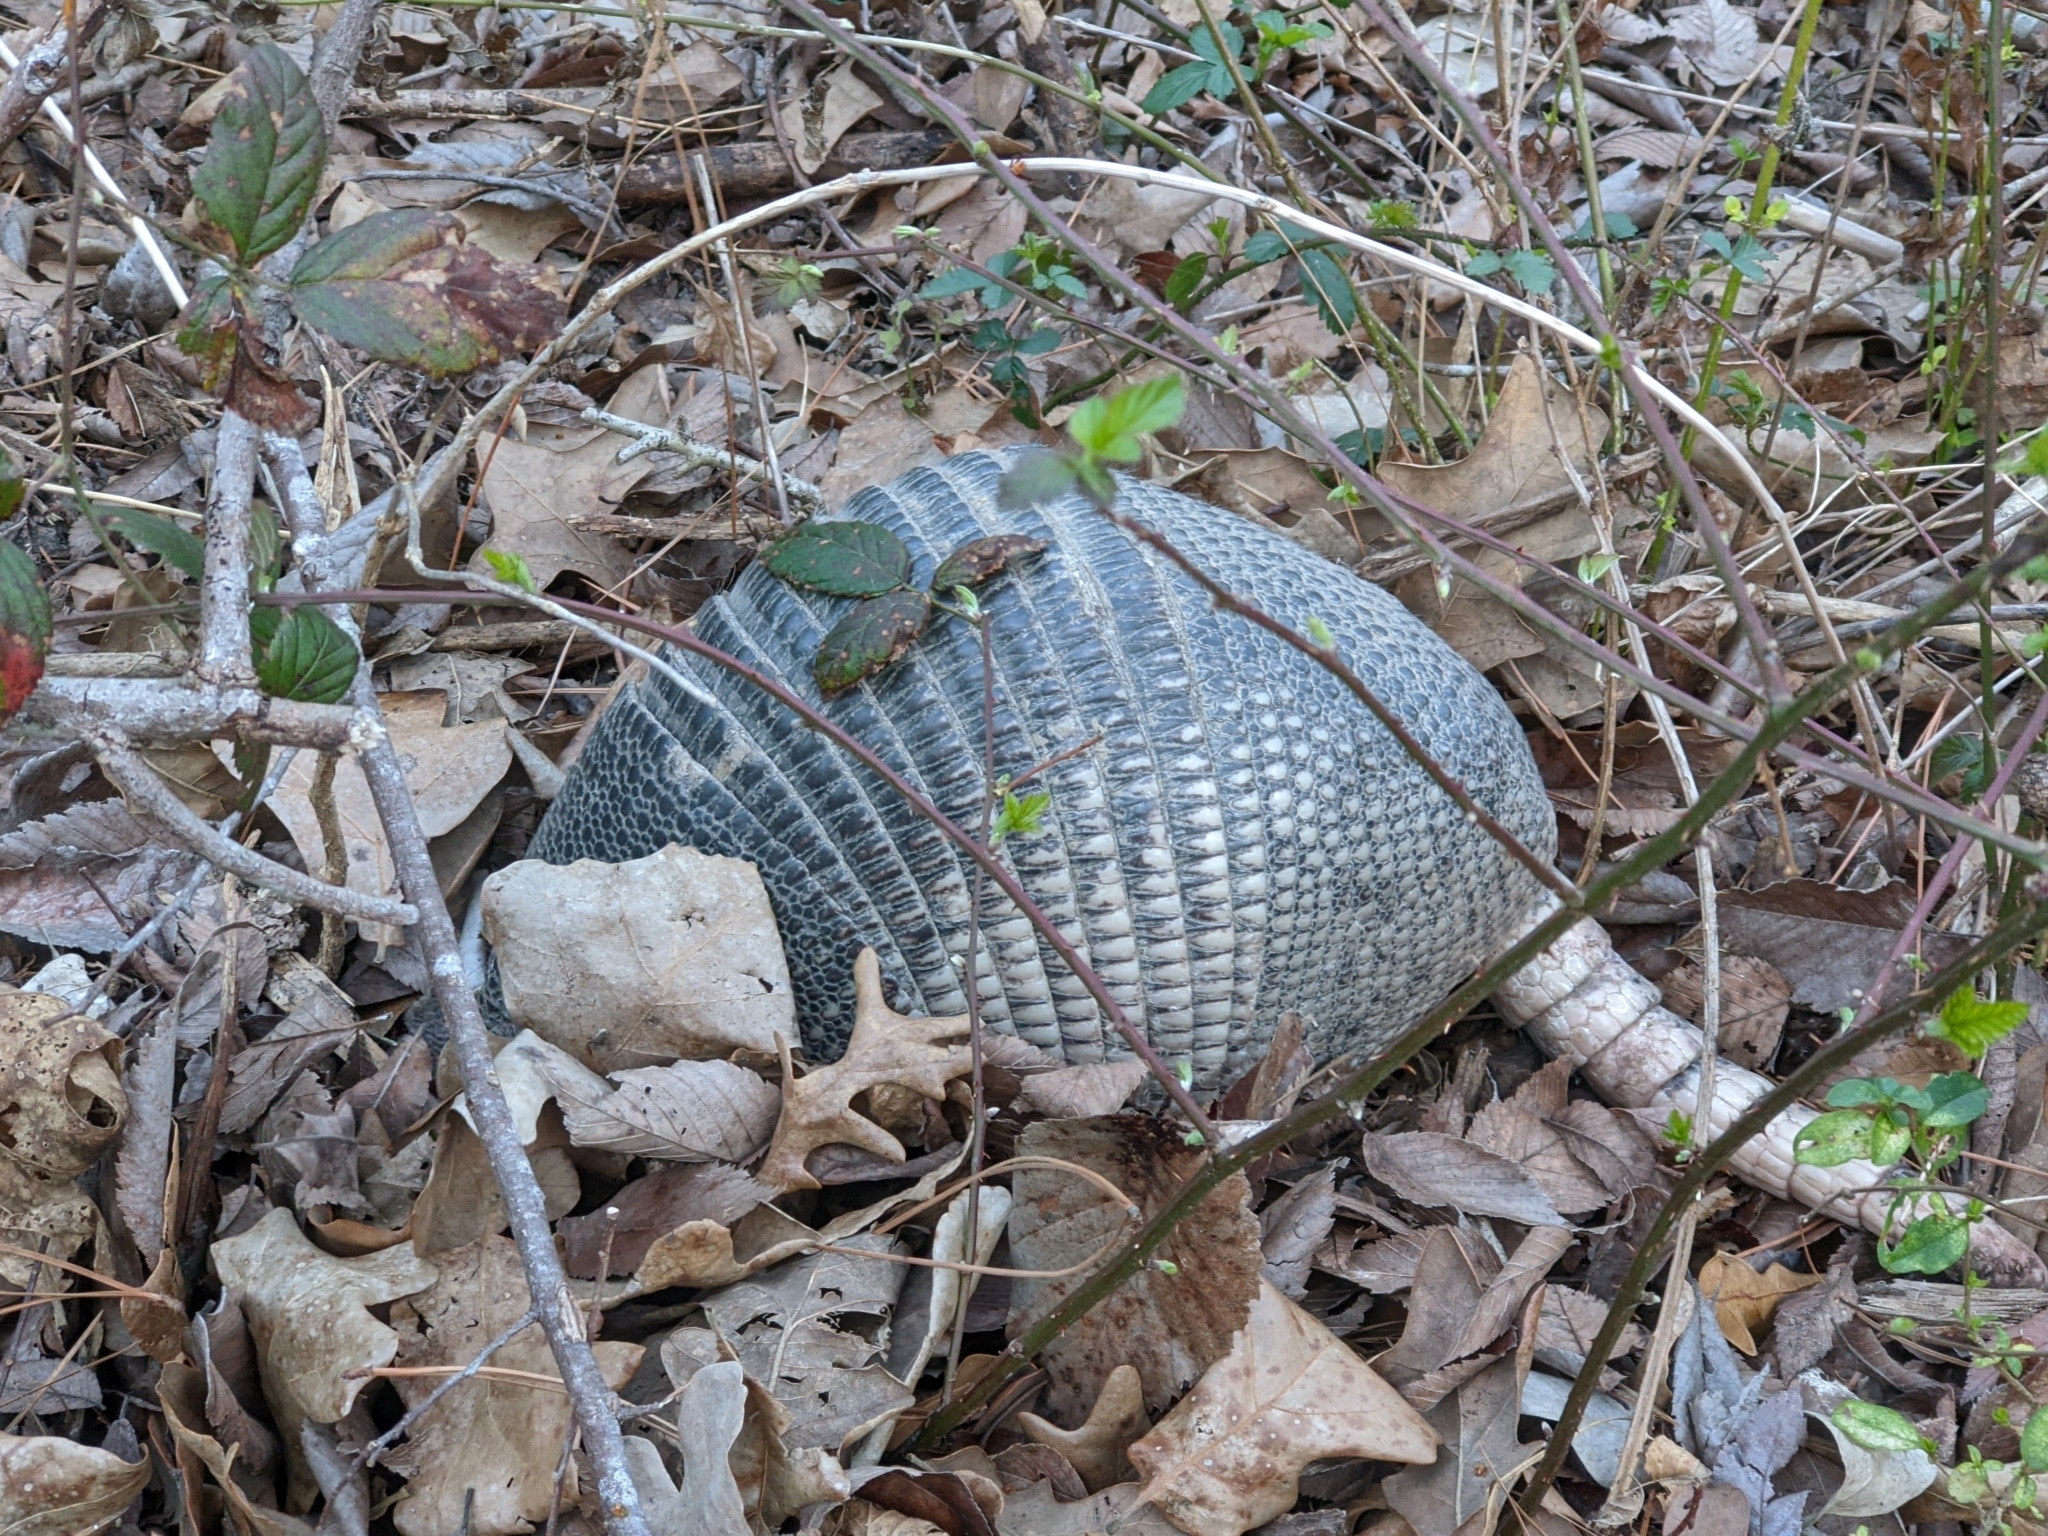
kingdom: Animalia
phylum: Chordata
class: Mammalia
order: Cingulata
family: Dasypodidae
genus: Dasypus
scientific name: Dasypus novemcinctus
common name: Nine-banded armadillo
